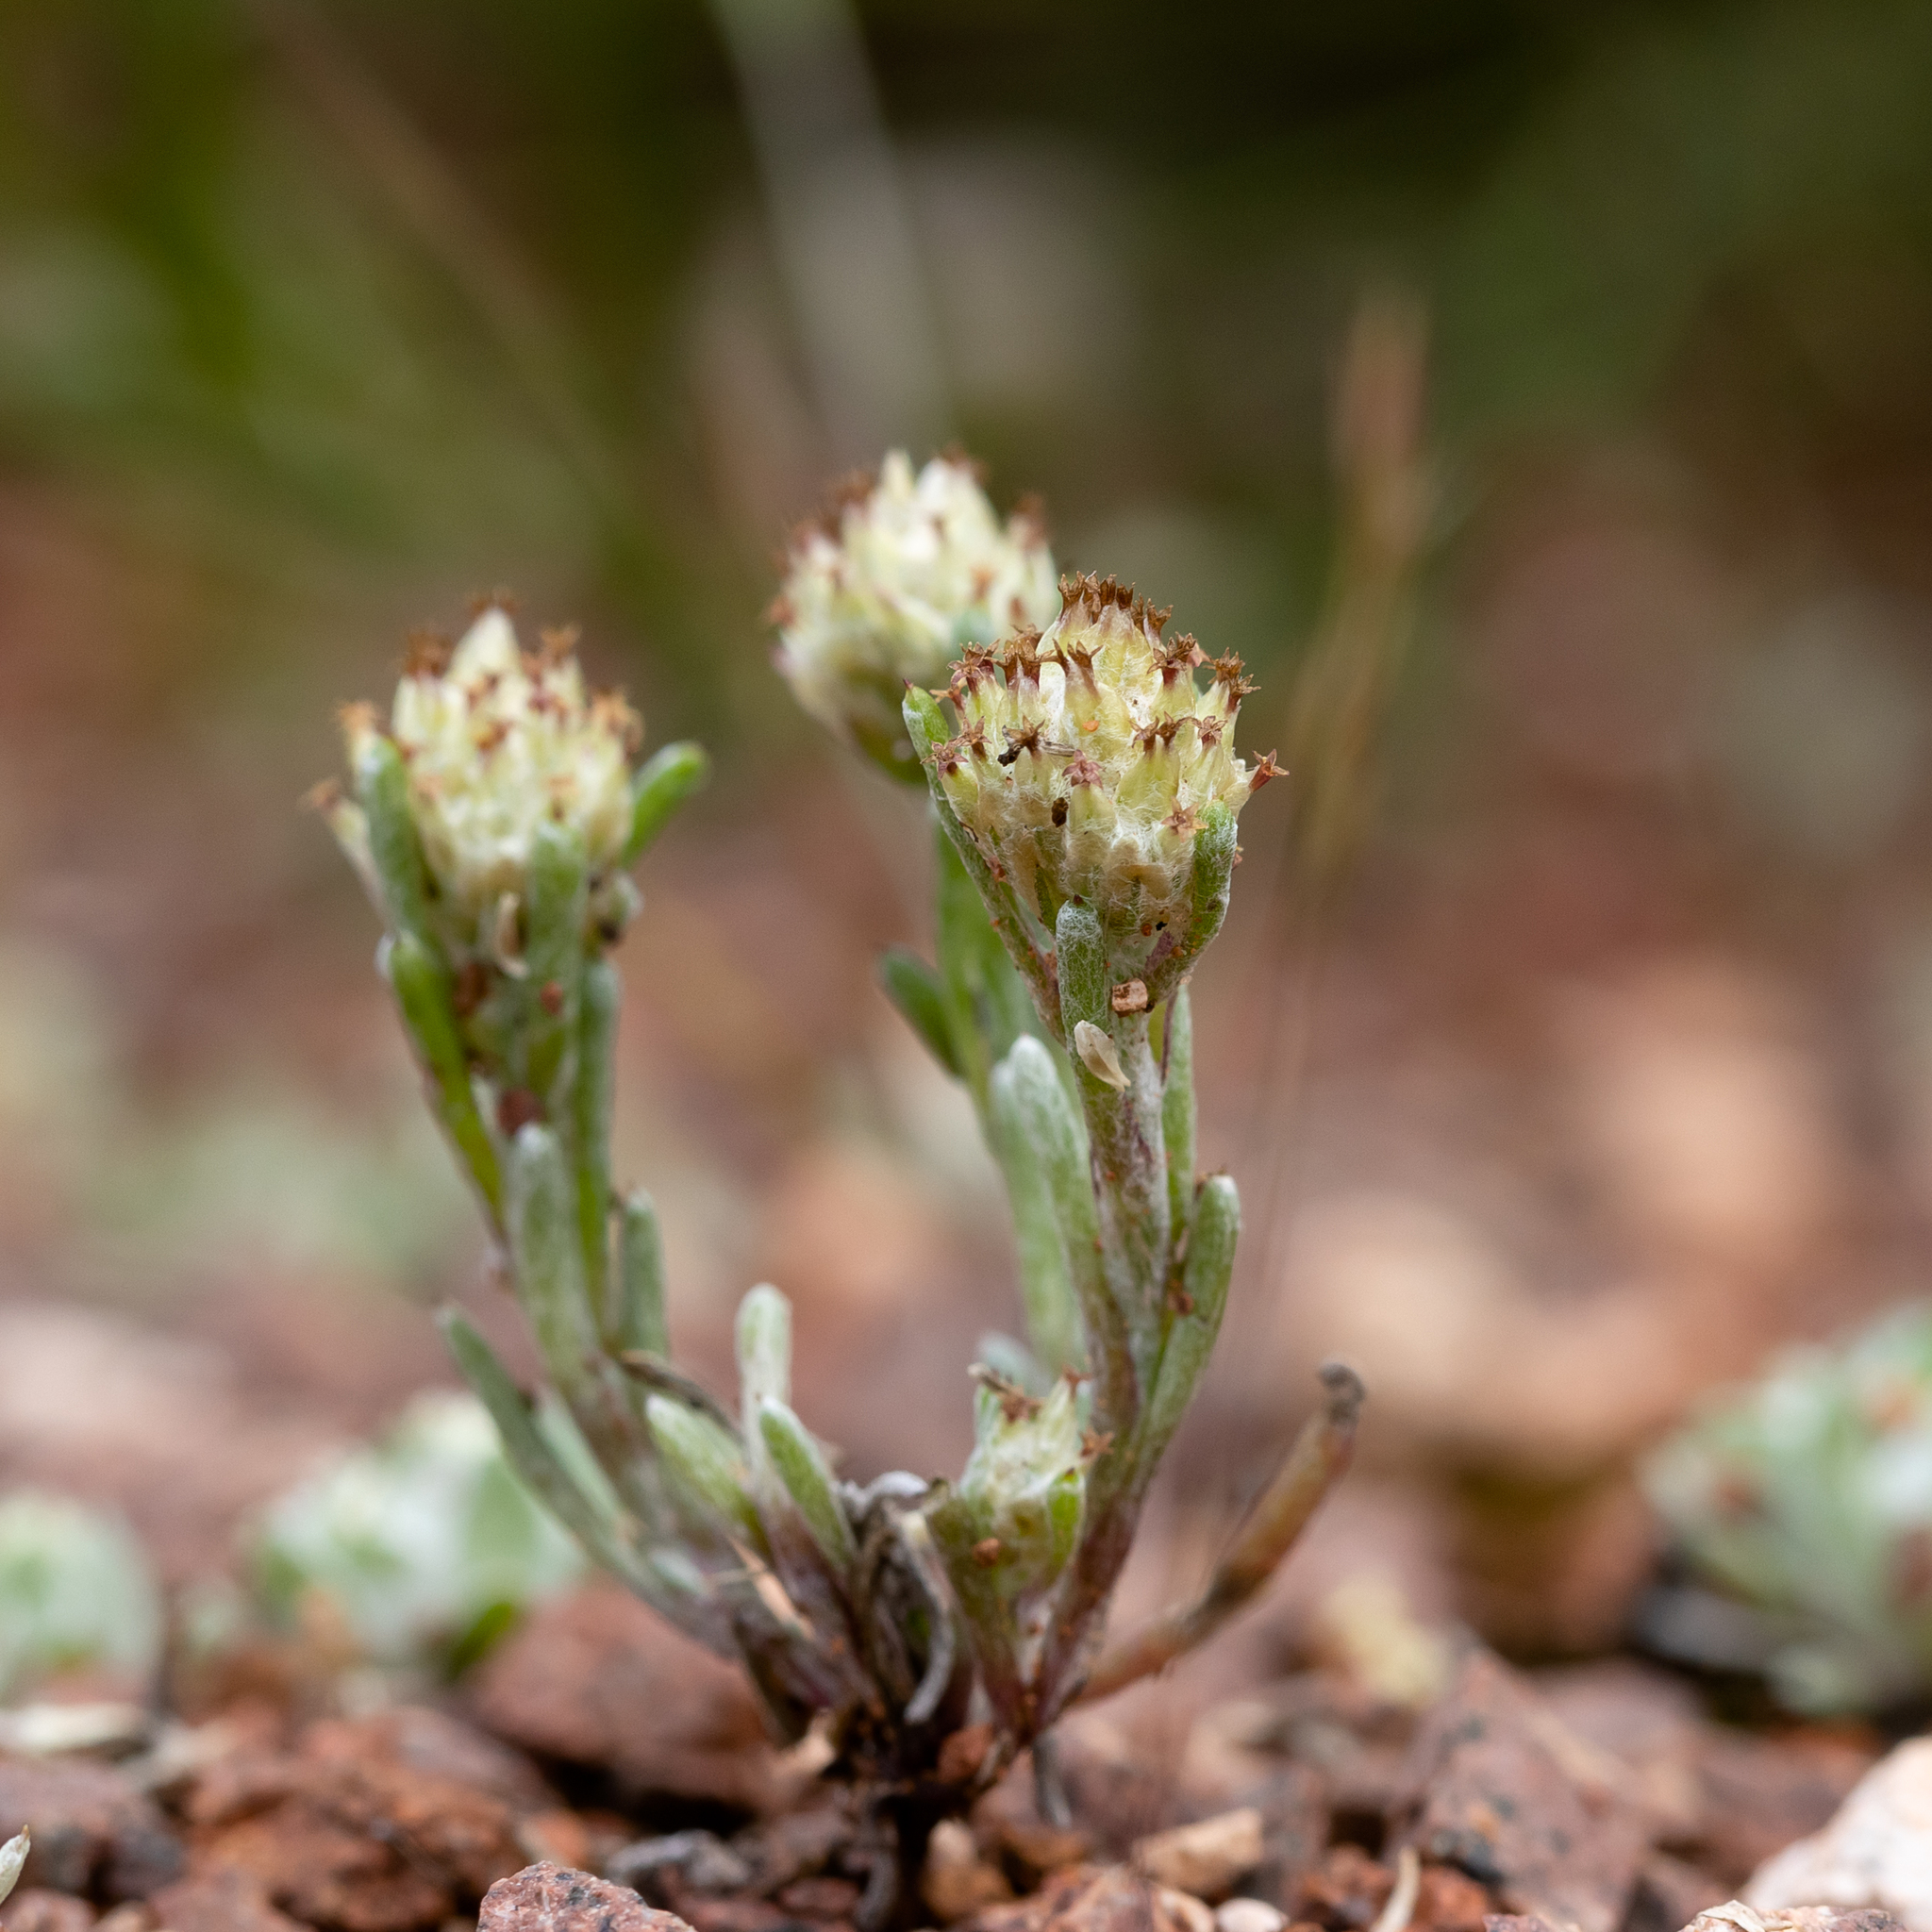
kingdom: Plantae
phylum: Tracheophyta
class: Magnoliopsida
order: Asterales
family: Asteraceae
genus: Blennospora
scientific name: Blennospora drummondii
